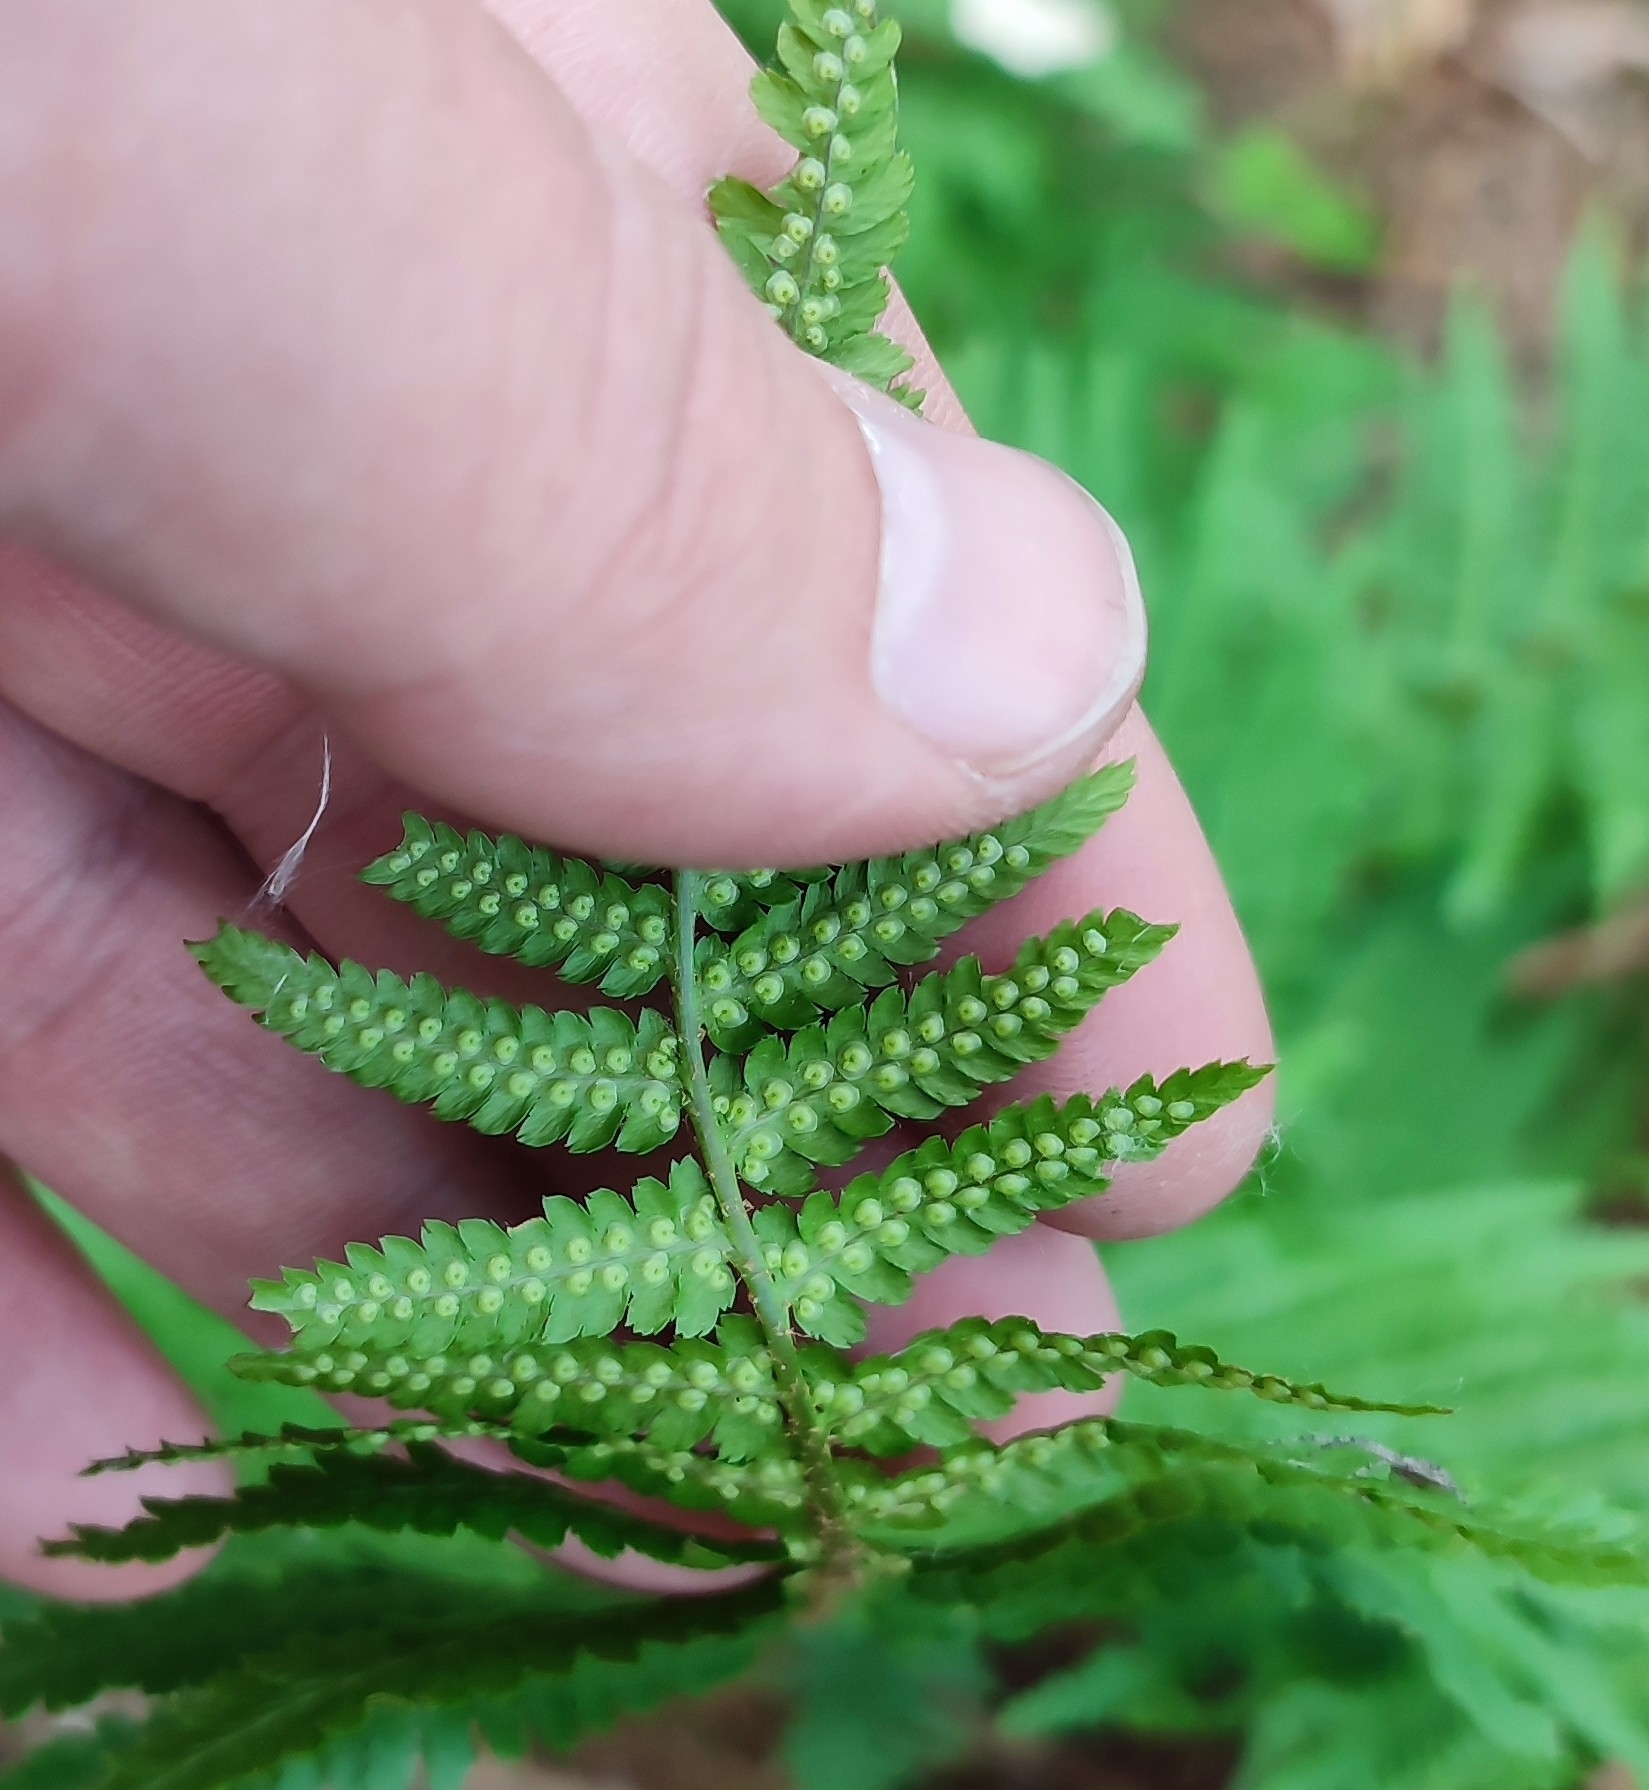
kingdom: Plantae
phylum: Tracheophyta
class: Polypodiopsida
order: Polypodiales
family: Dryopteridaceae
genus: Dryopteris
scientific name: Dryopteris filix-mas
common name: Male fern
